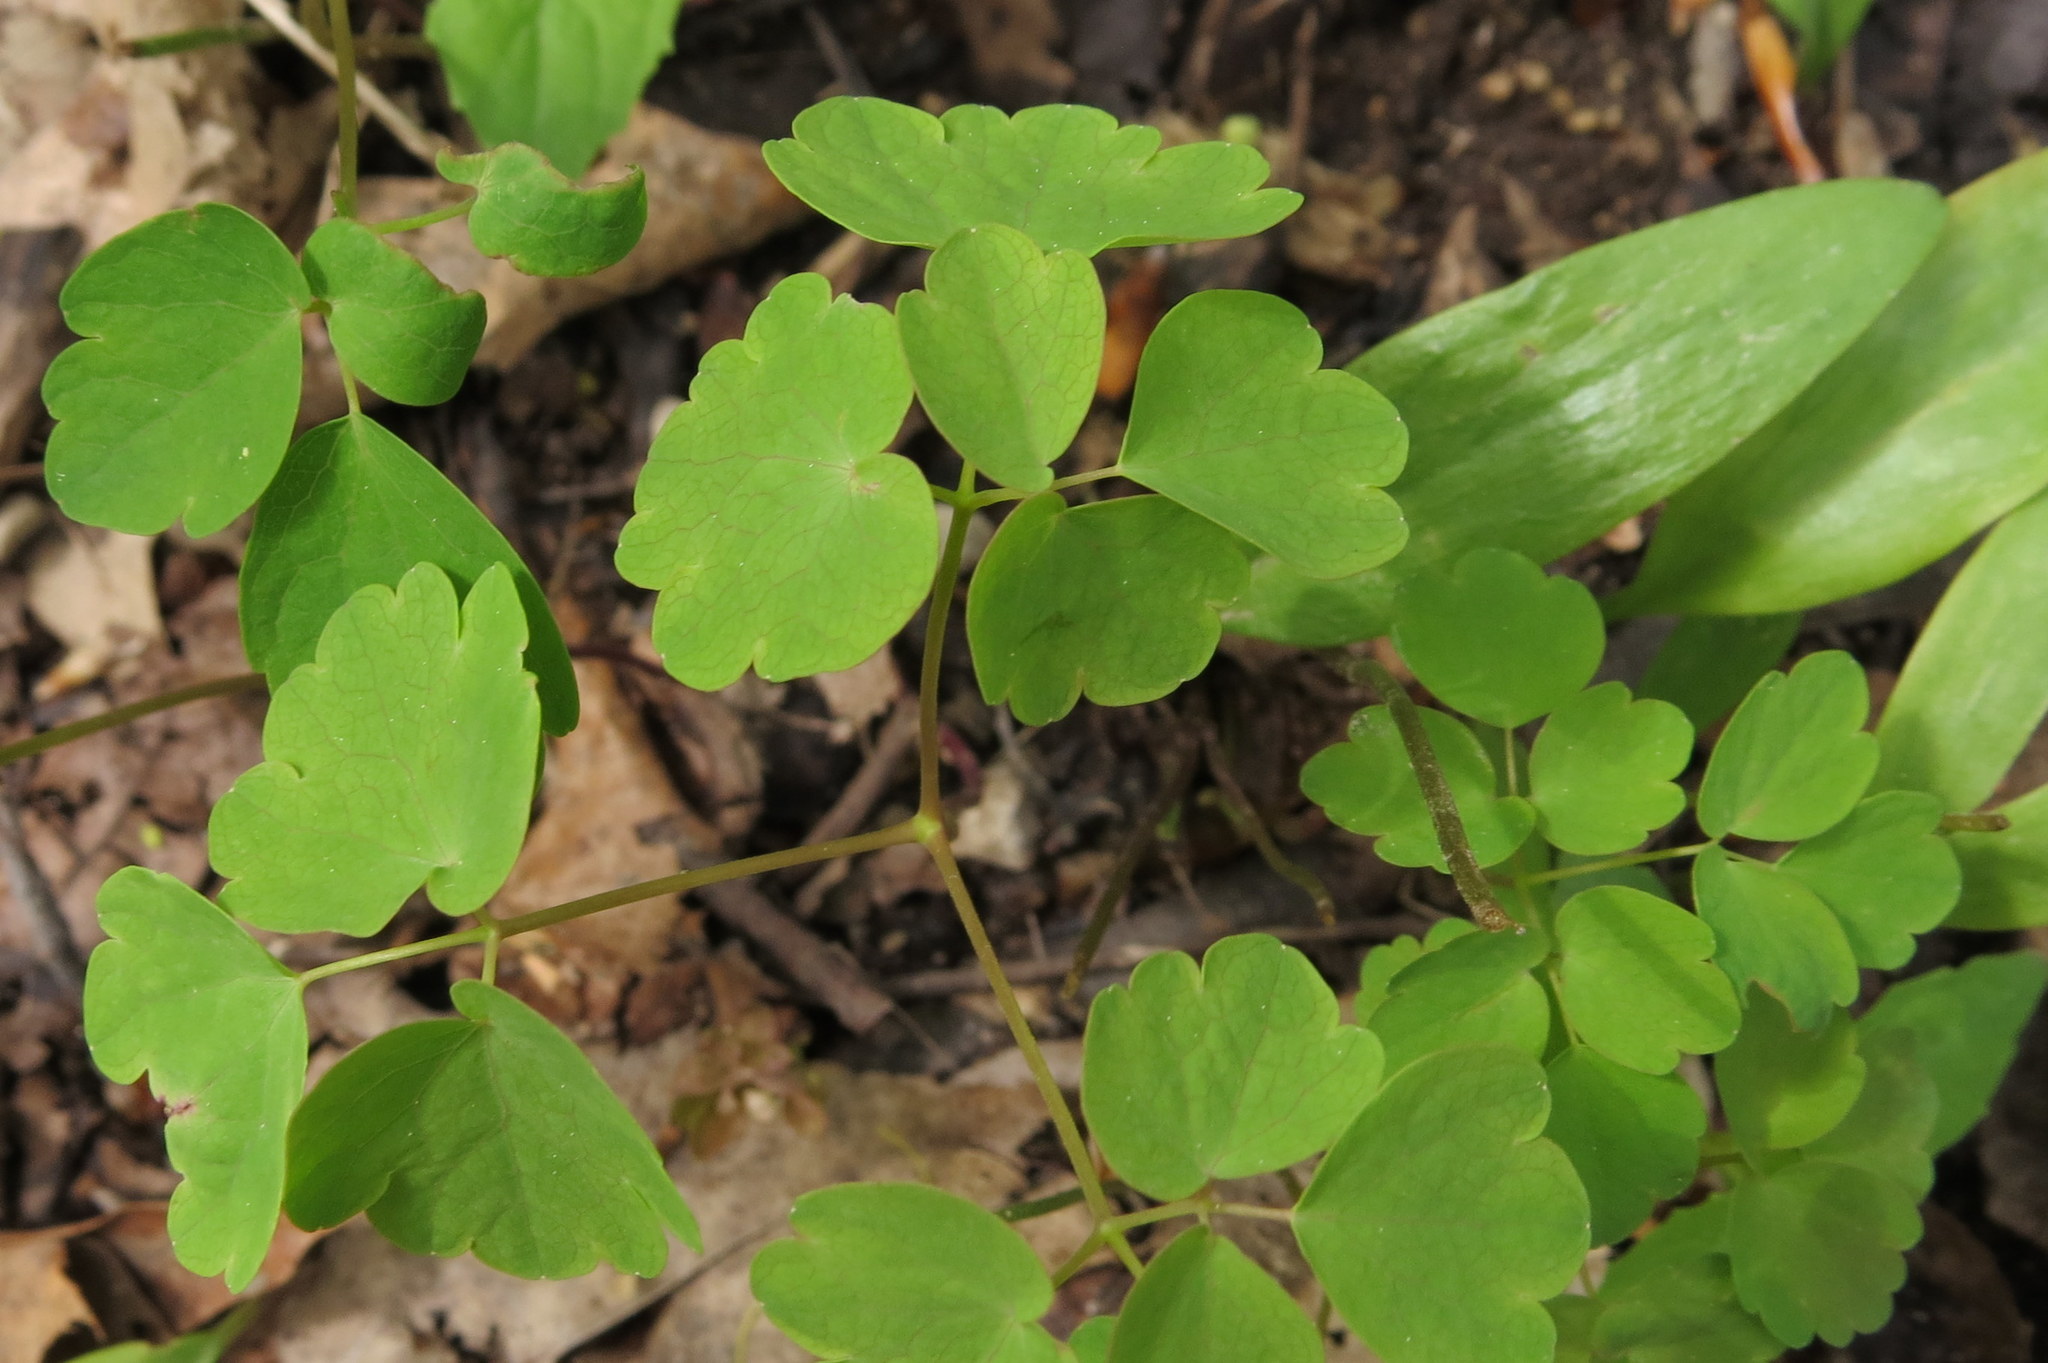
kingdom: Plantae
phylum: Tracheophyta
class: Magnoliopsida
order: Ranunculales
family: Ranunculaceae
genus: Thalictrum
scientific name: Thalictrum thalictroides
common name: Rue-anemone
